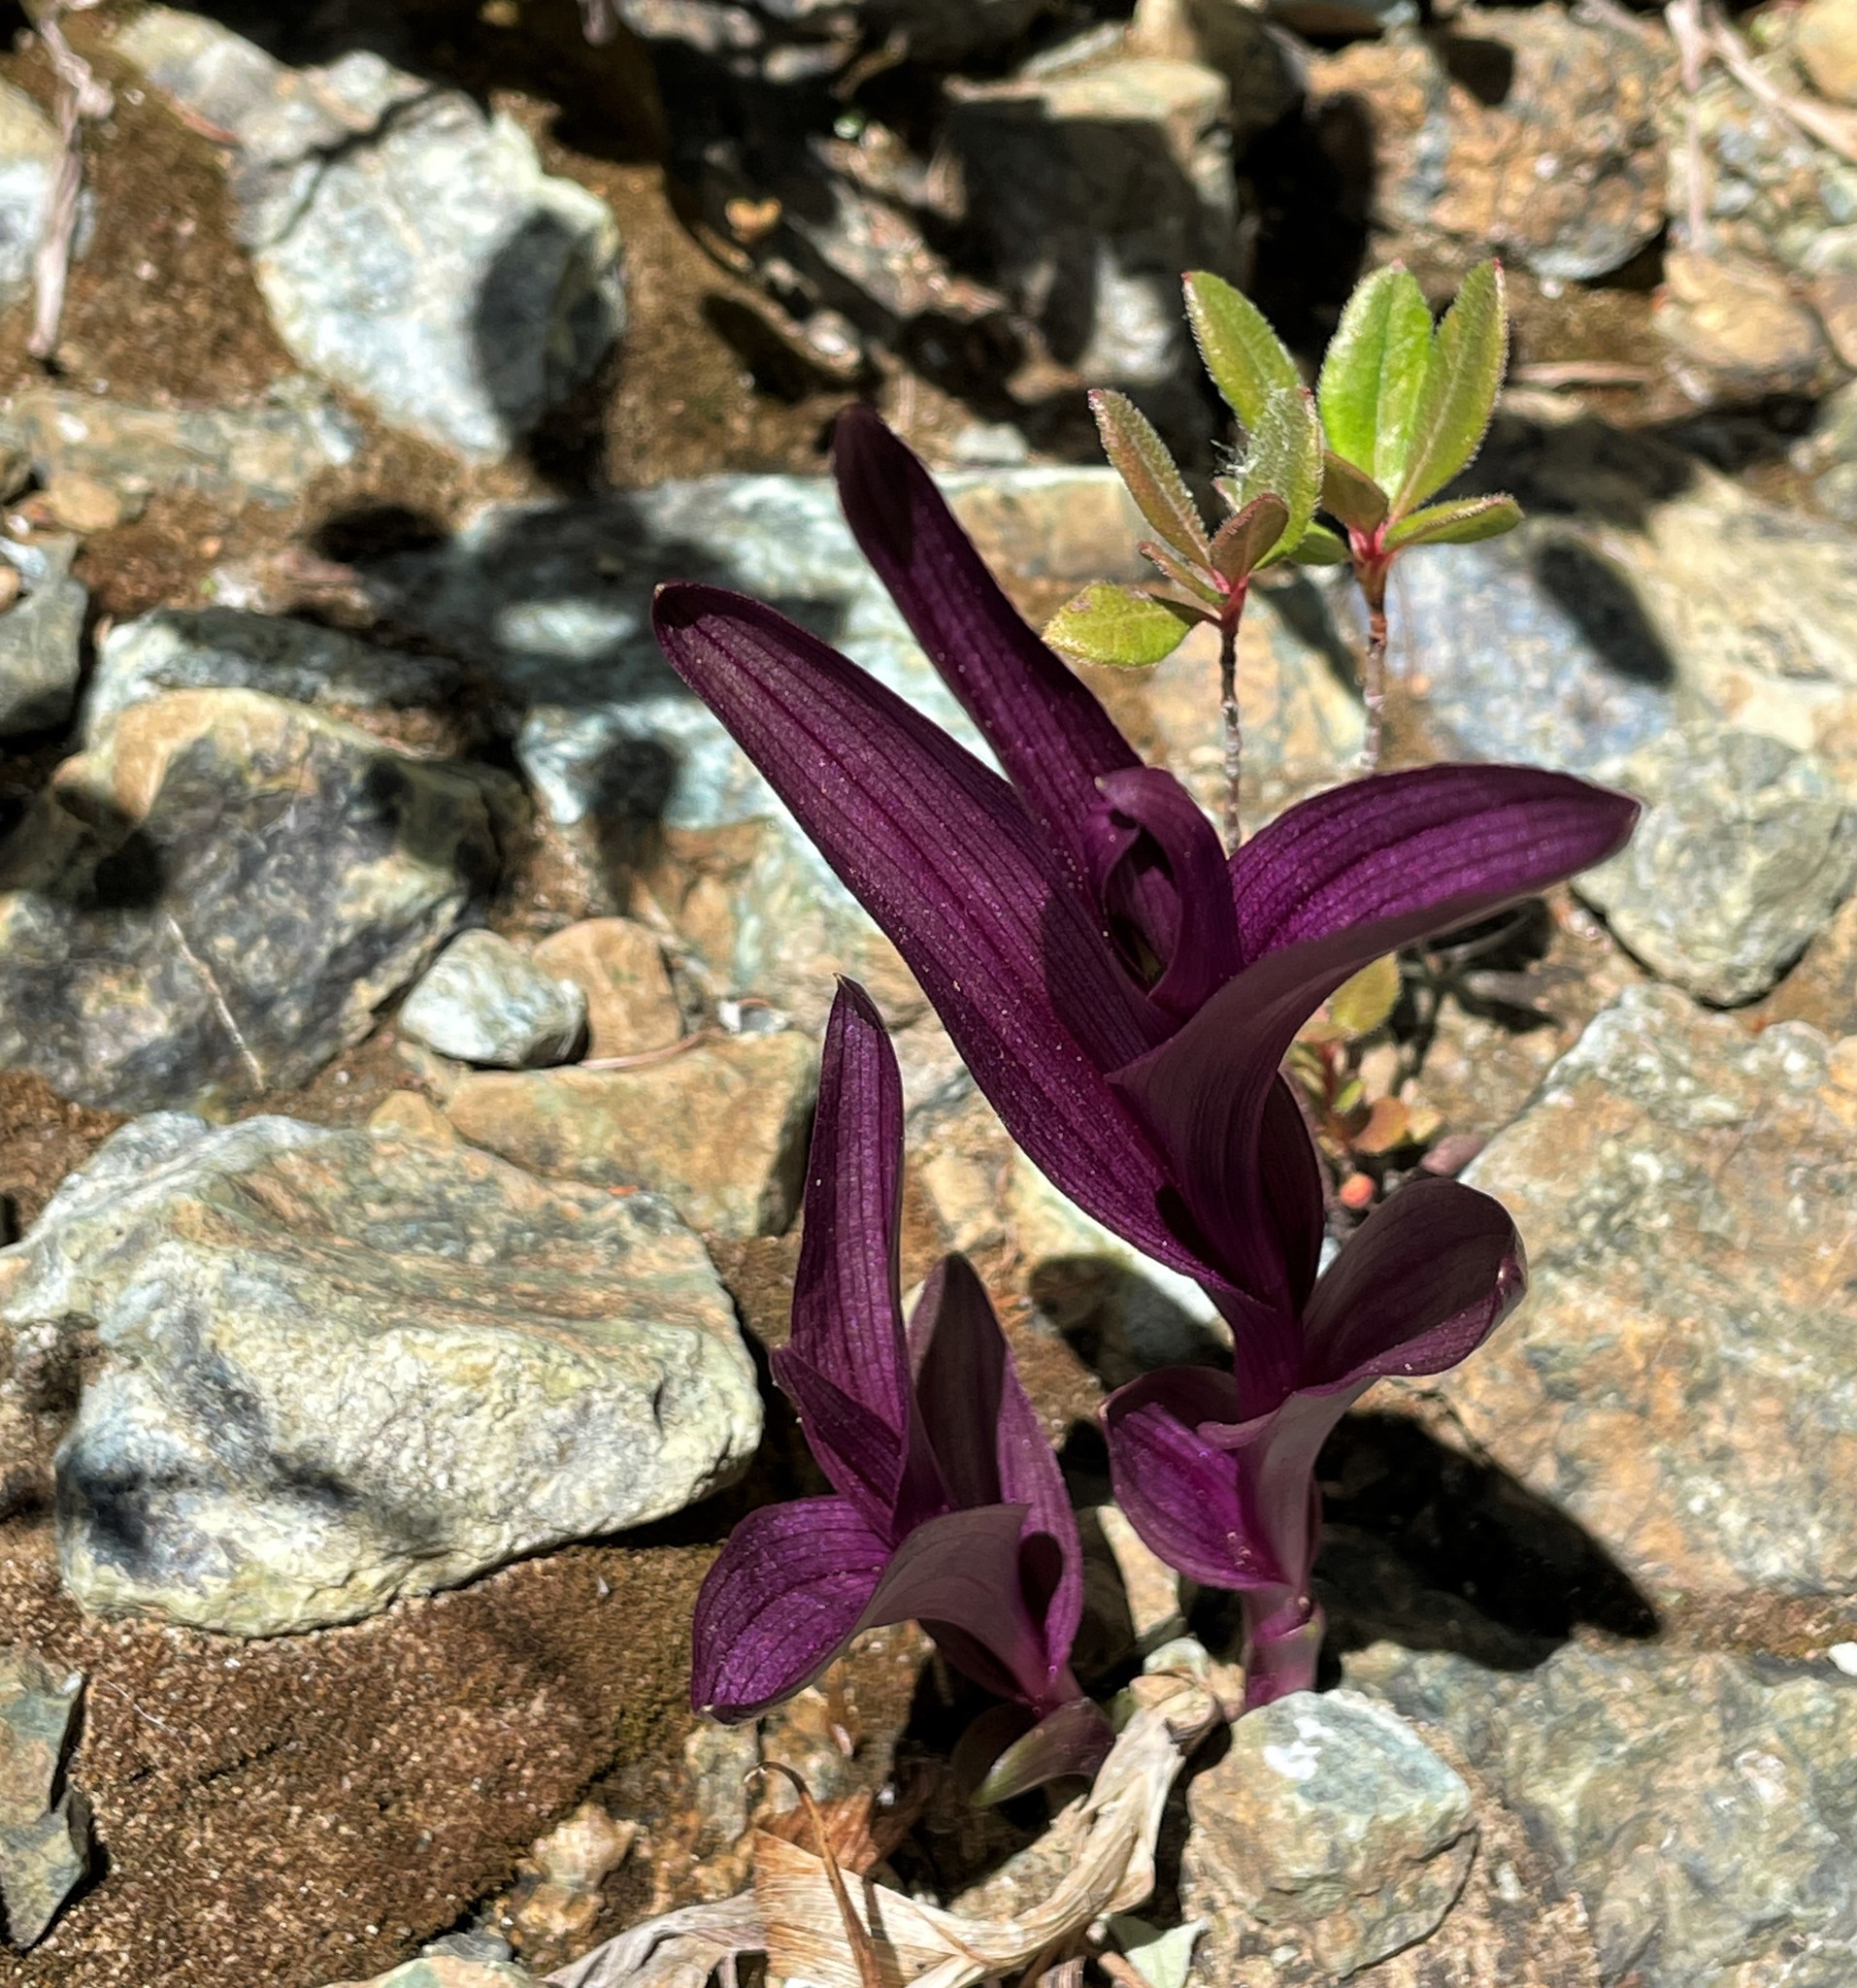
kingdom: Plantae
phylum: Tracheophyta
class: Liliopsida
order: Asparagales
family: Orchidaceae
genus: Epipactis
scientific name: Epipactis gigantea
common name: Chatterbox
